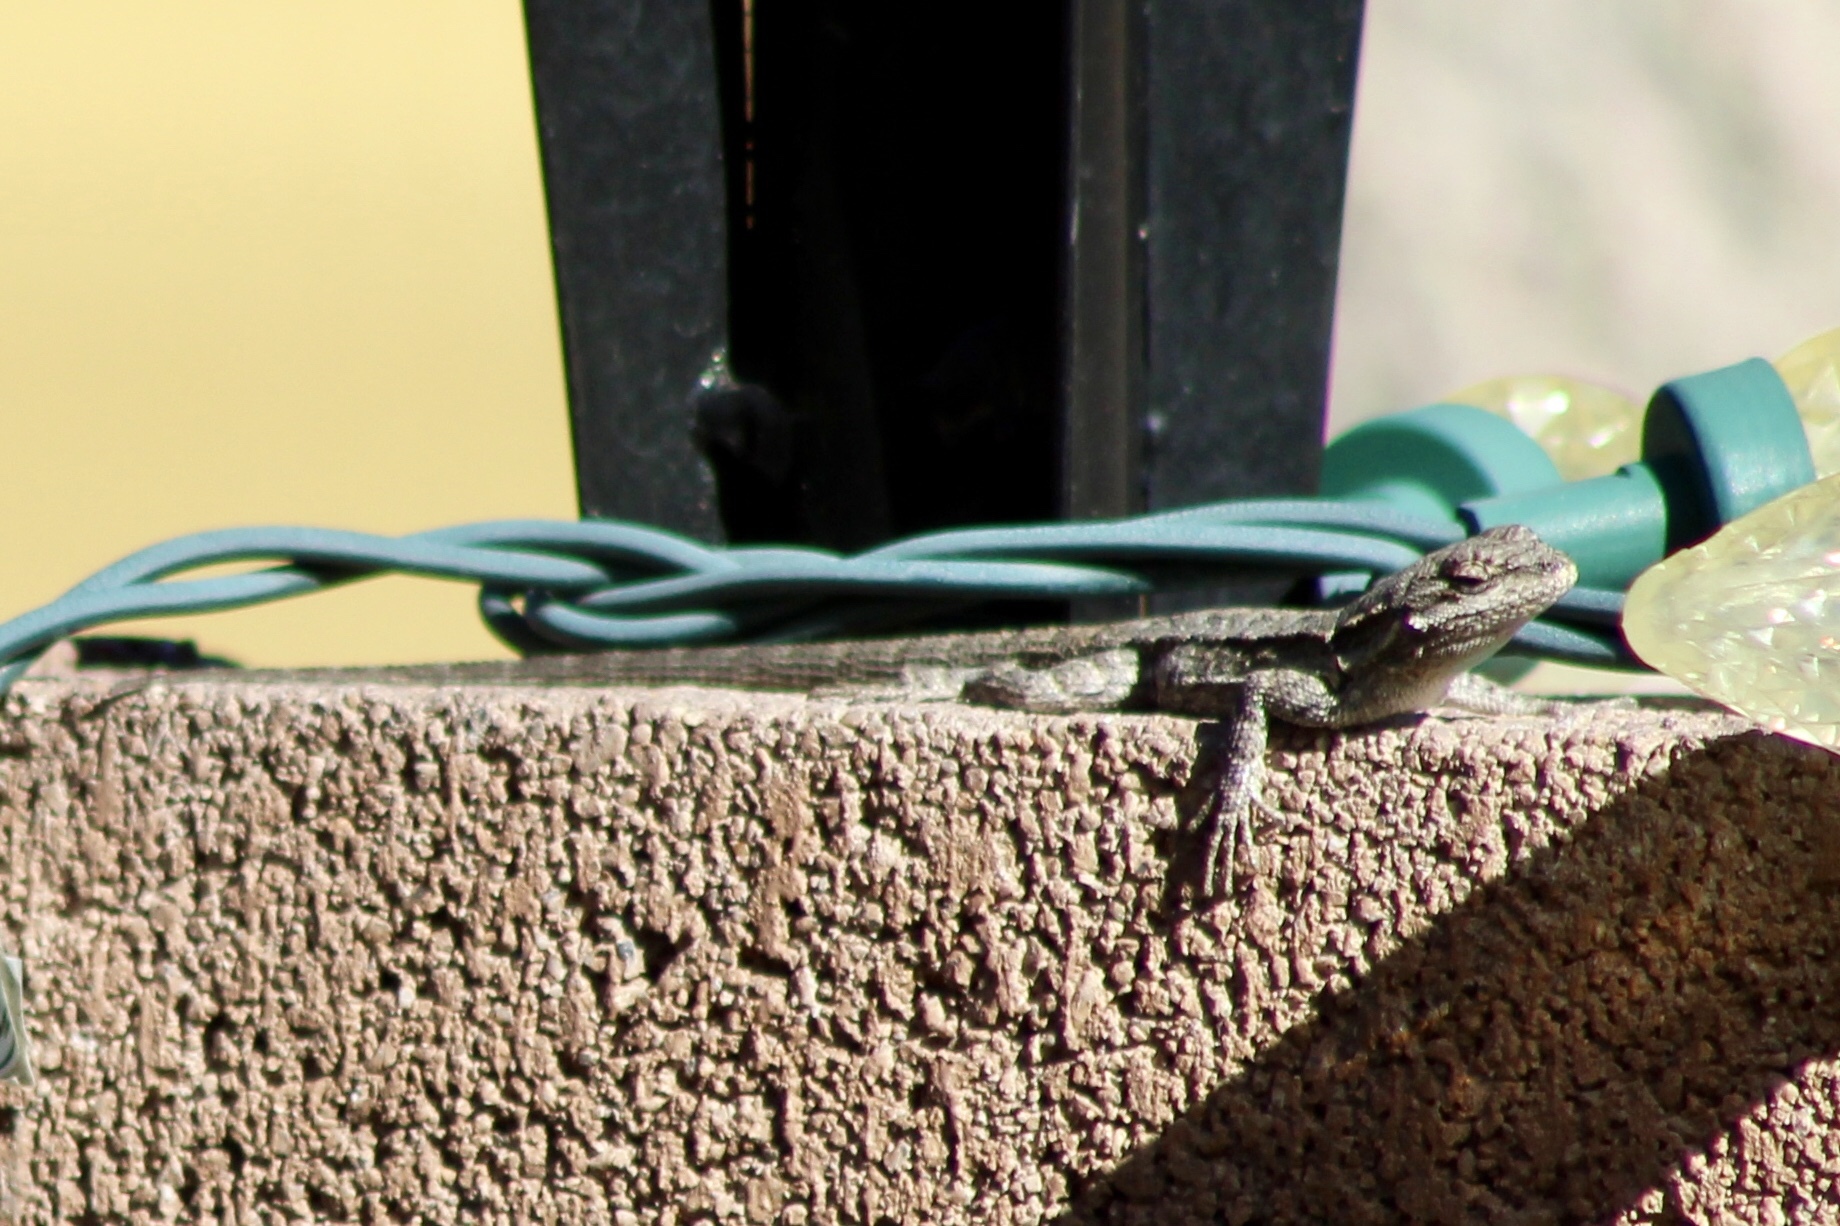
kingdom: Animalia
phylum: Chordata
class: Squamata
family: Phrynosomatidae
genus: Urosaurus
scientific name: Urosaurus ornatus
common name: Ornate tree lizard
